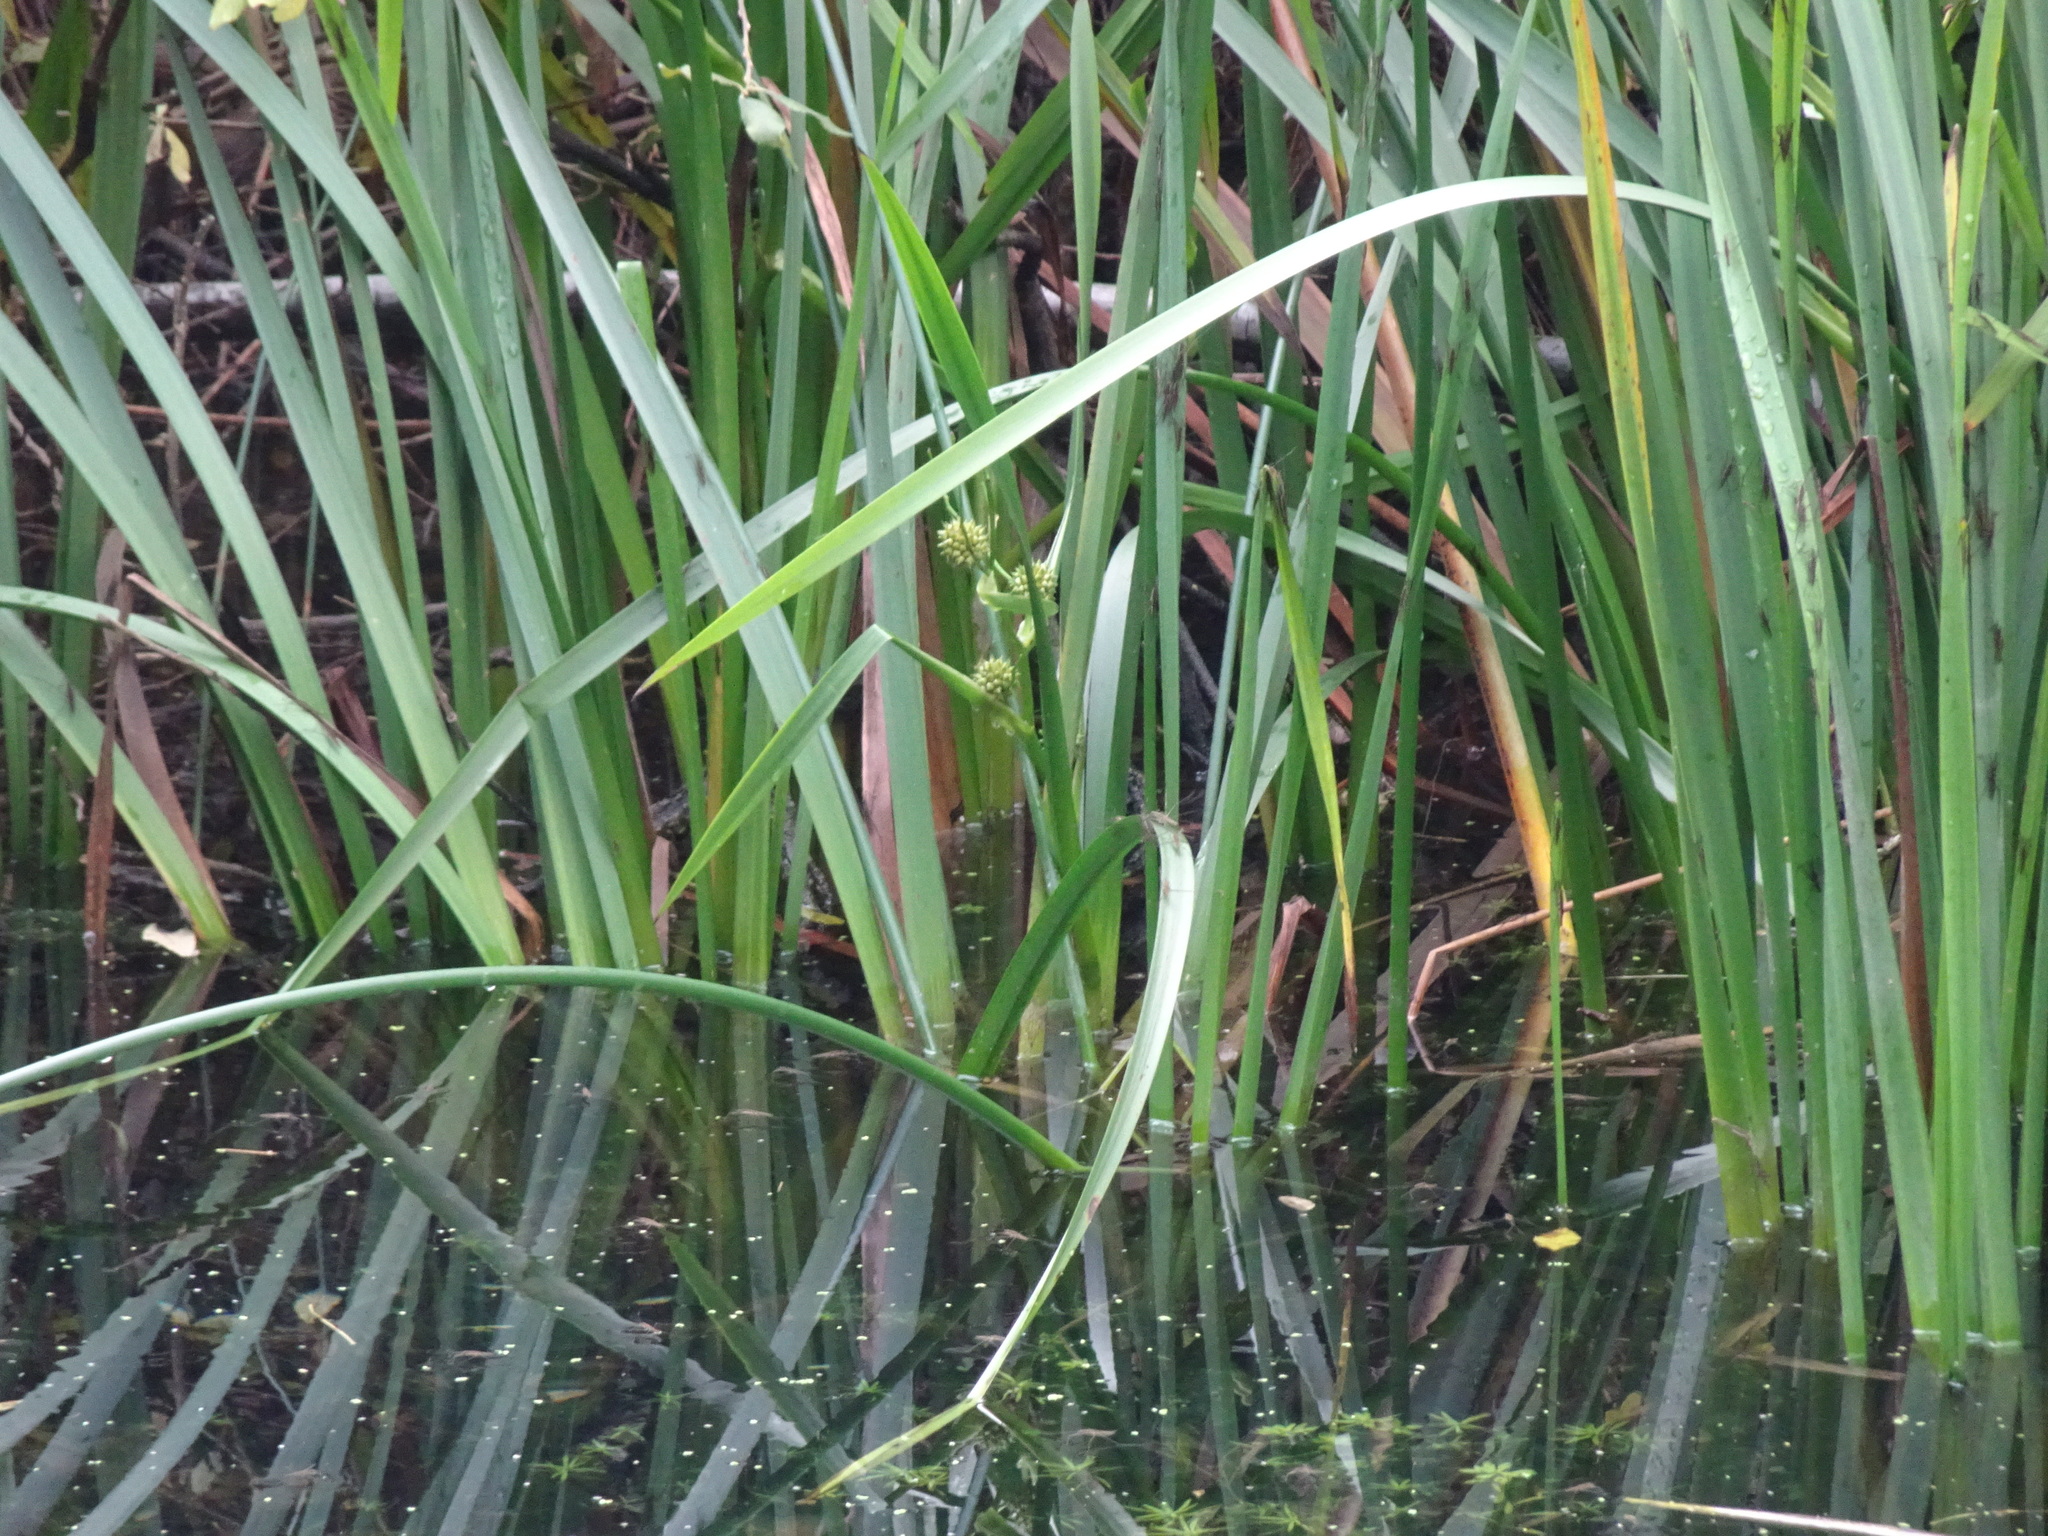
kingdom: Plantae
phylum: Tracheophyta
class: Liliopsida
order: Poales
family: Typhaceae
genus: Sparganium
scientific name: Sparganium erectum
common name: Branched bur-reed
